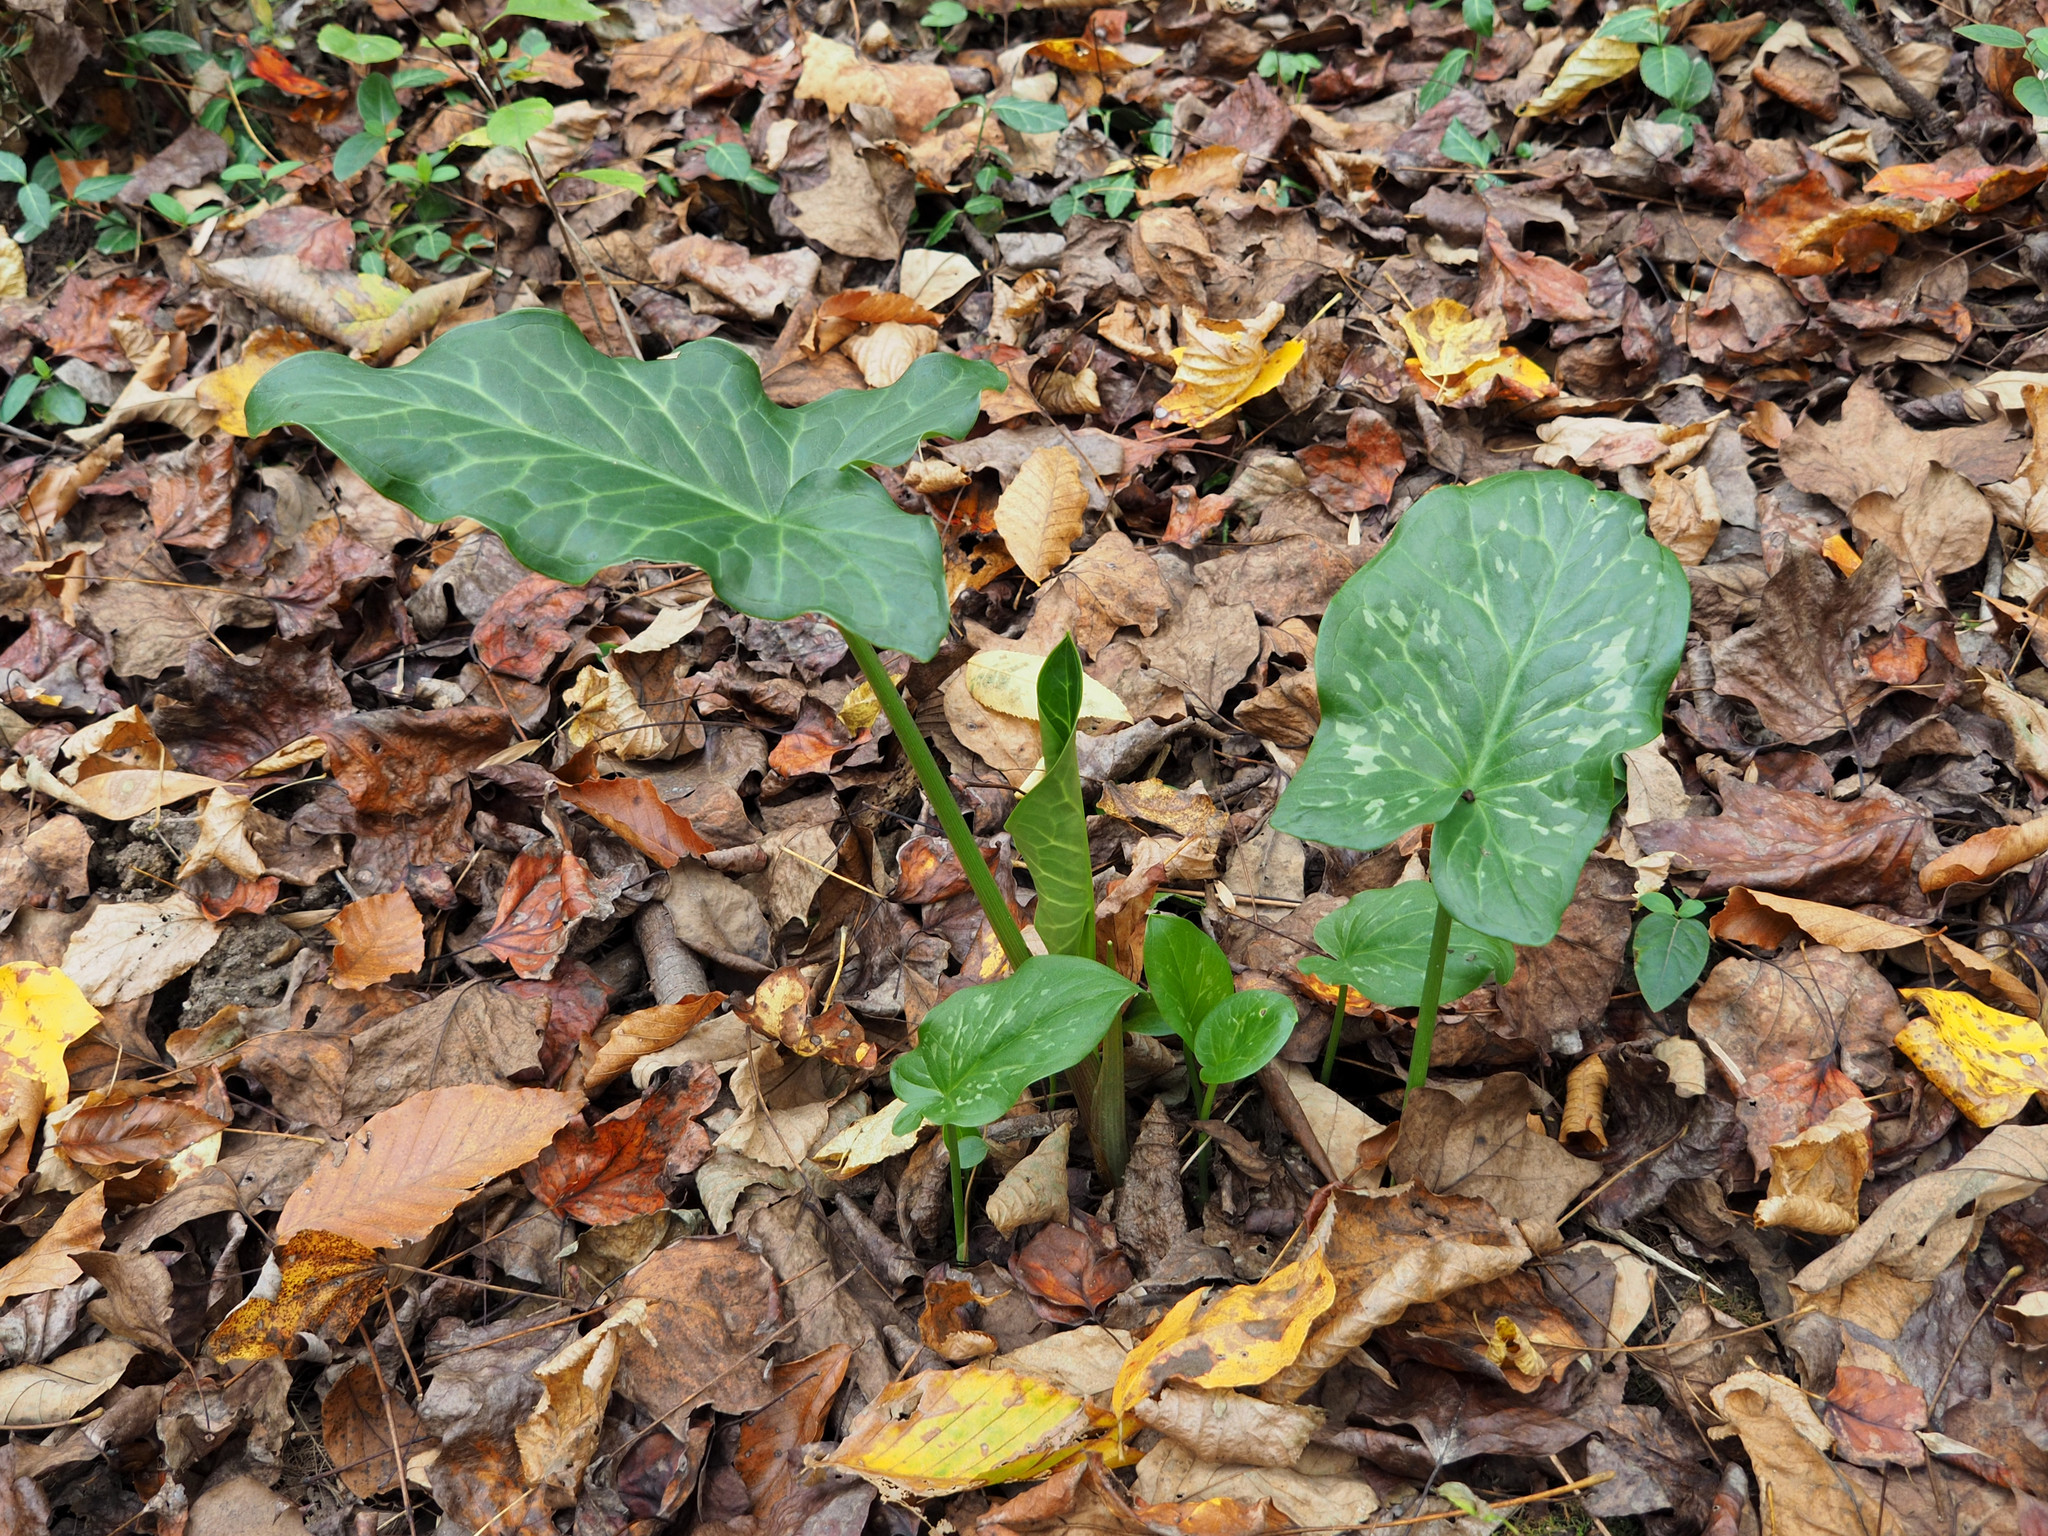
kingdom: Plantae
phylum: Tracheophyta
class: Liliopsida
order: Alismatales
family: Araceae
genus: Arum
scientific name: Arum italicum
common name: Italian lords-and-ladies
